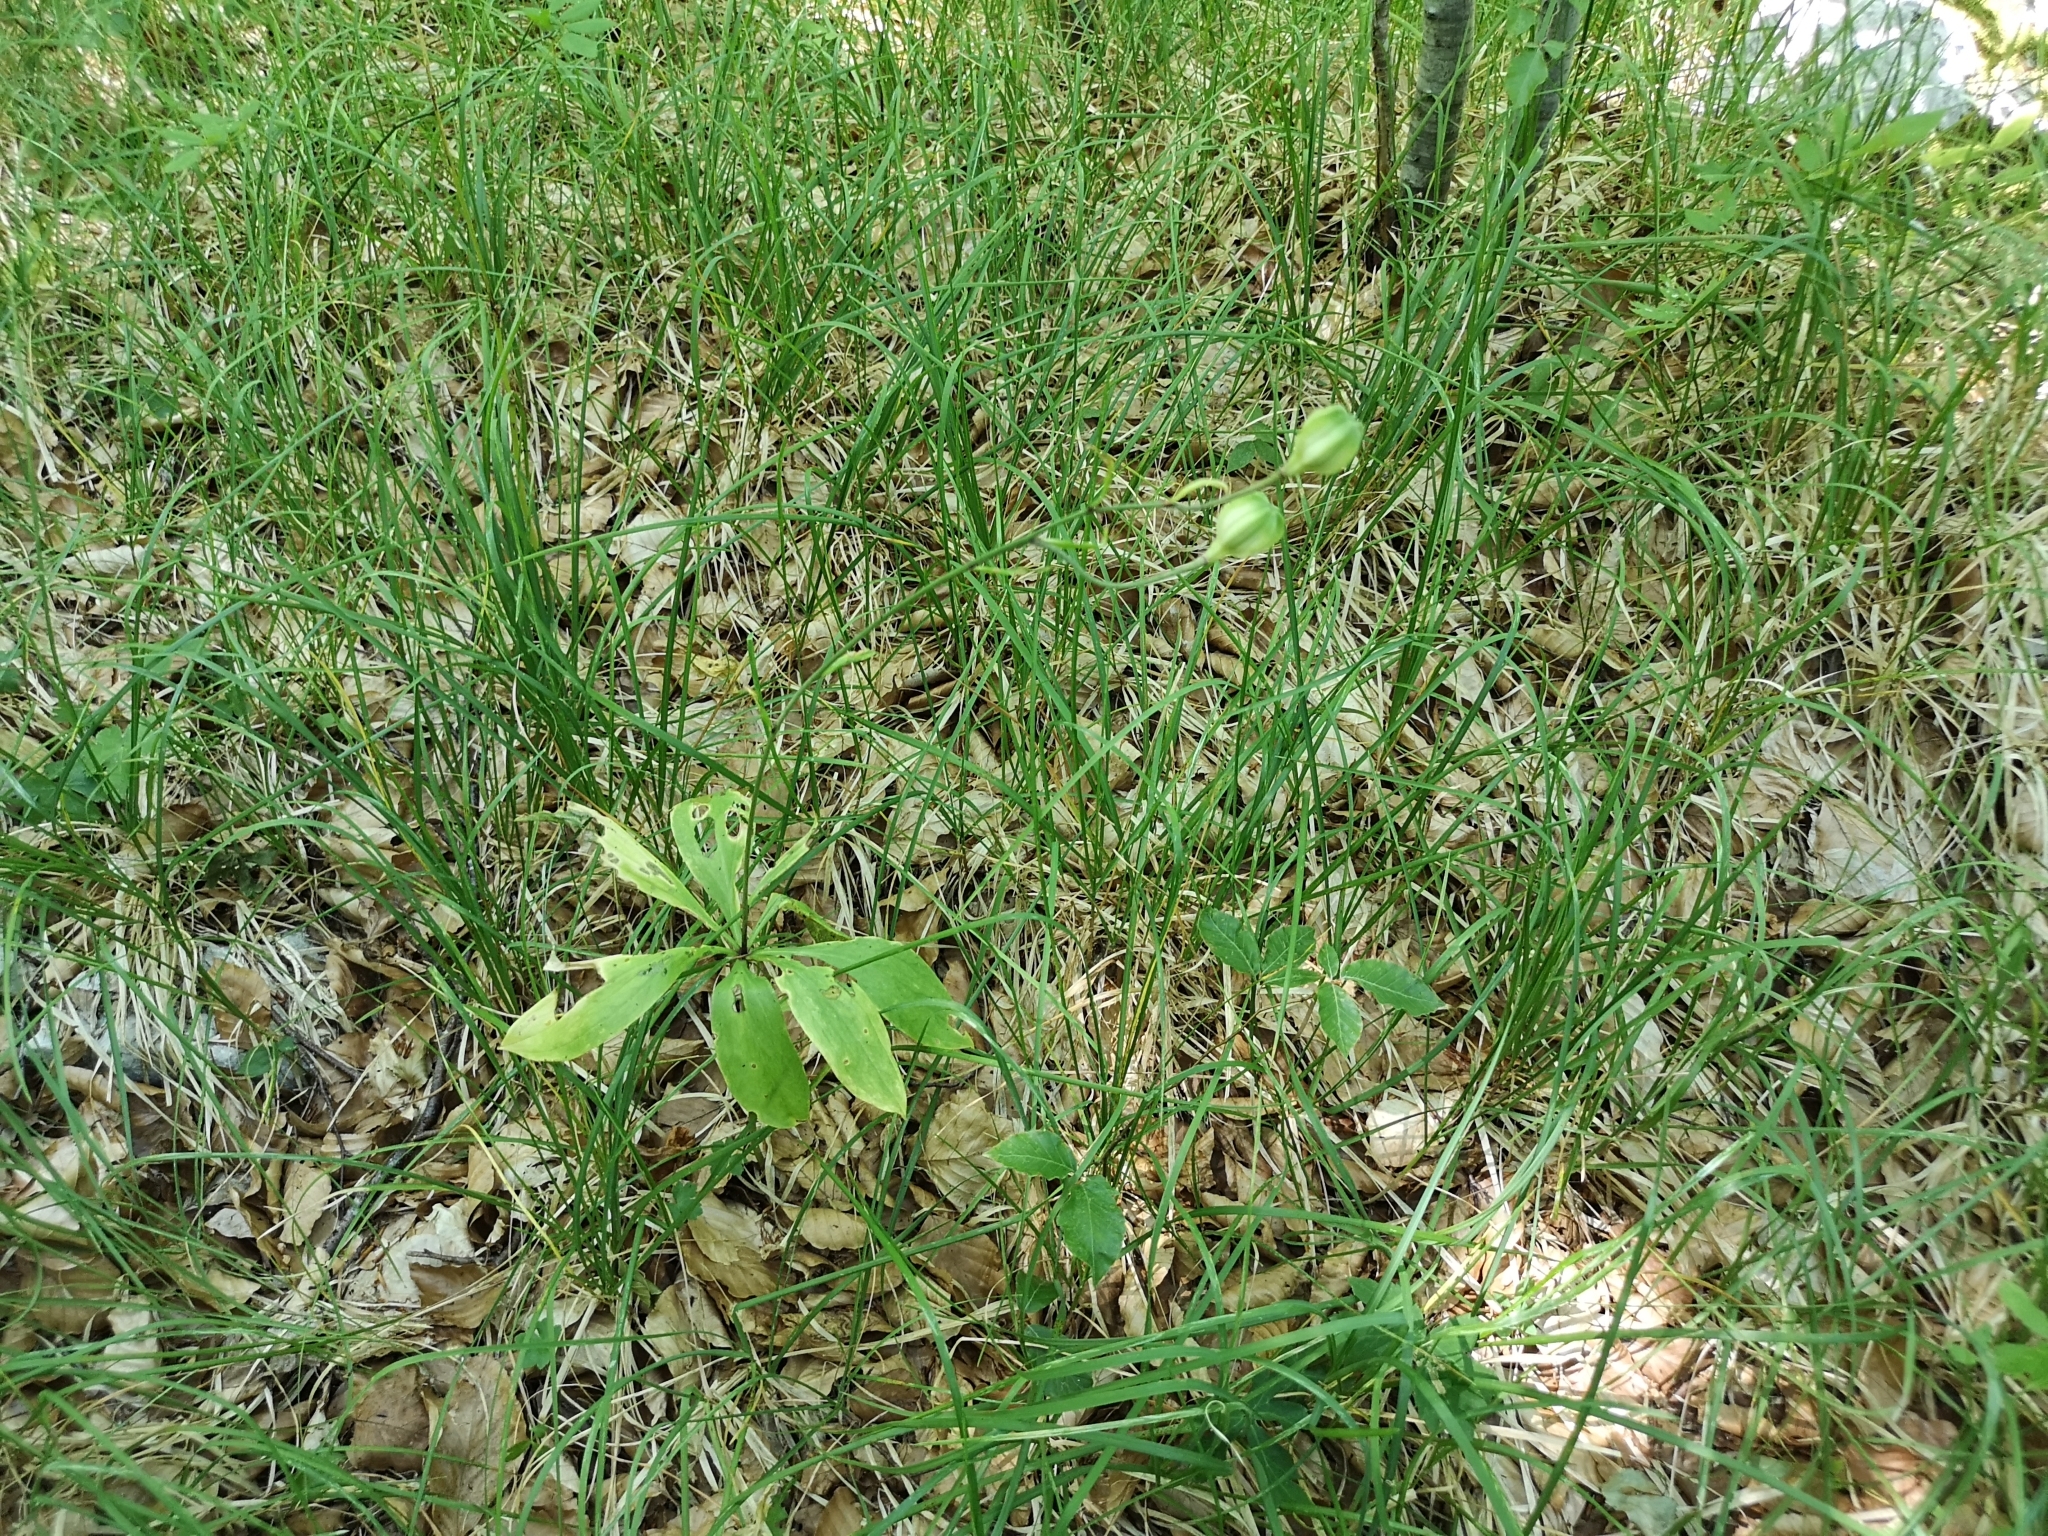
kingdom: Plantae
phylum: Tracheophyta
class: Liliopsida
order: Liliales
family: Liliaceae
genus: Lilium
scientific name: Lilium martagon
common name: Martagon lily
